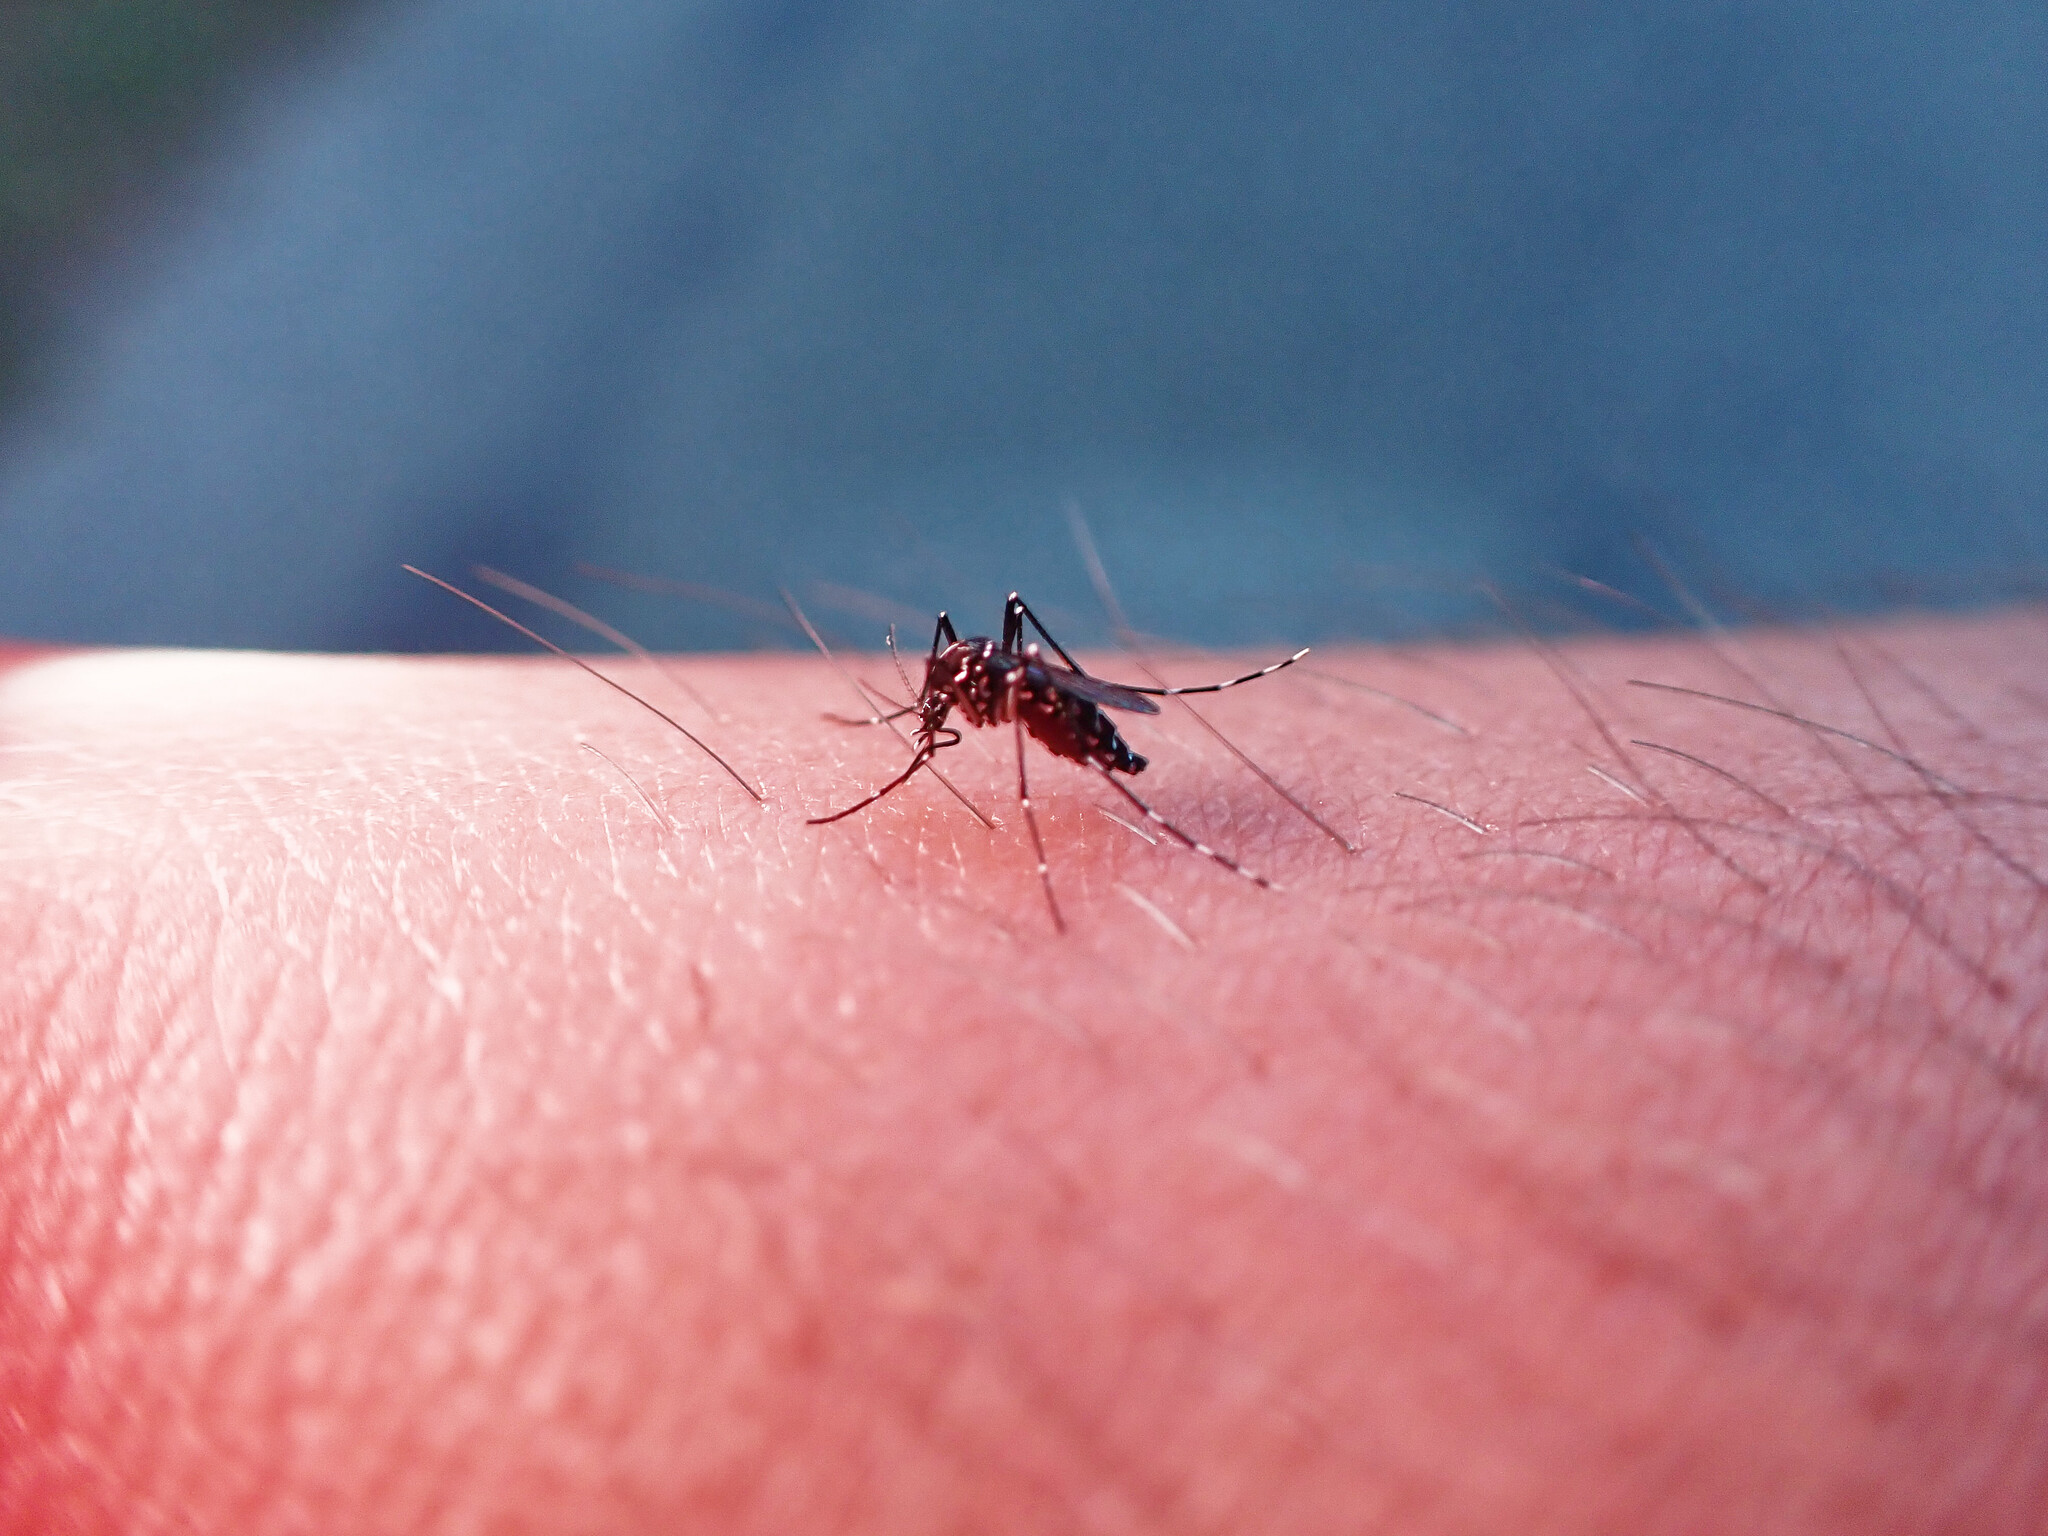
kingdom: Animalia
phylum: Arthropoda
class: Insecta
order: Diptera
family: Culicidae
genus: Aedes
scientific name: Aedes albopictus
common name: Tiger mosquito
